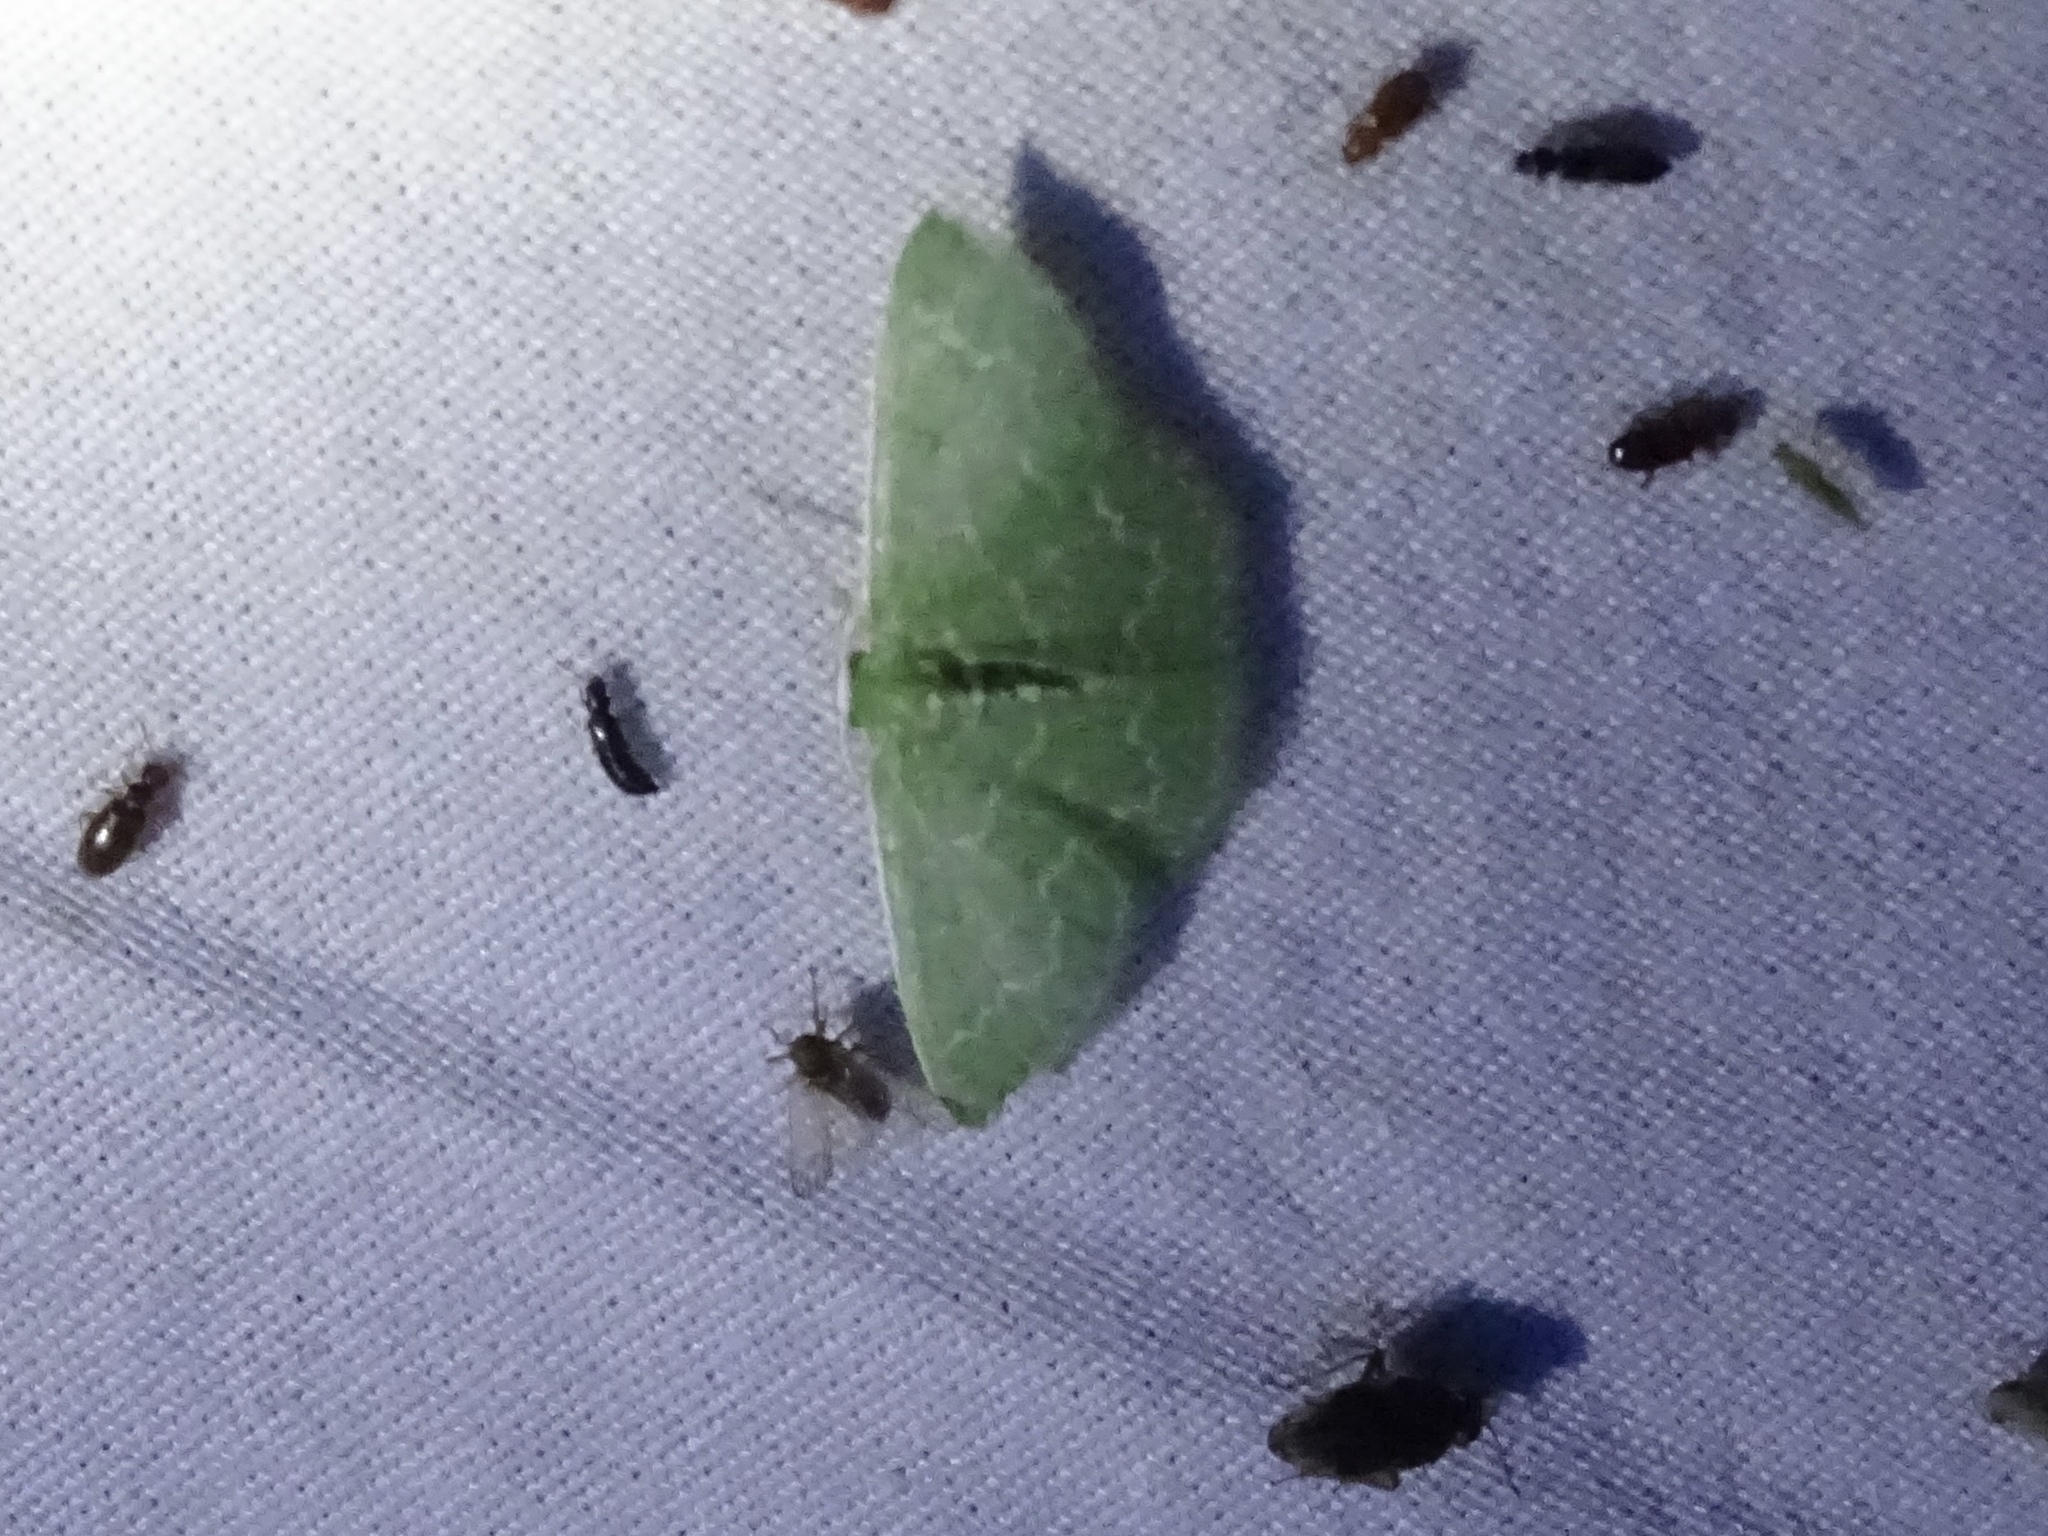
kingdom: Animalia
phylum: Arthropoda
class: Insecta
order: Lepidoptera
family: Geometridae
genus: Synchlora
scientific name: Synchlora frondaria
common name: Southern emerald
